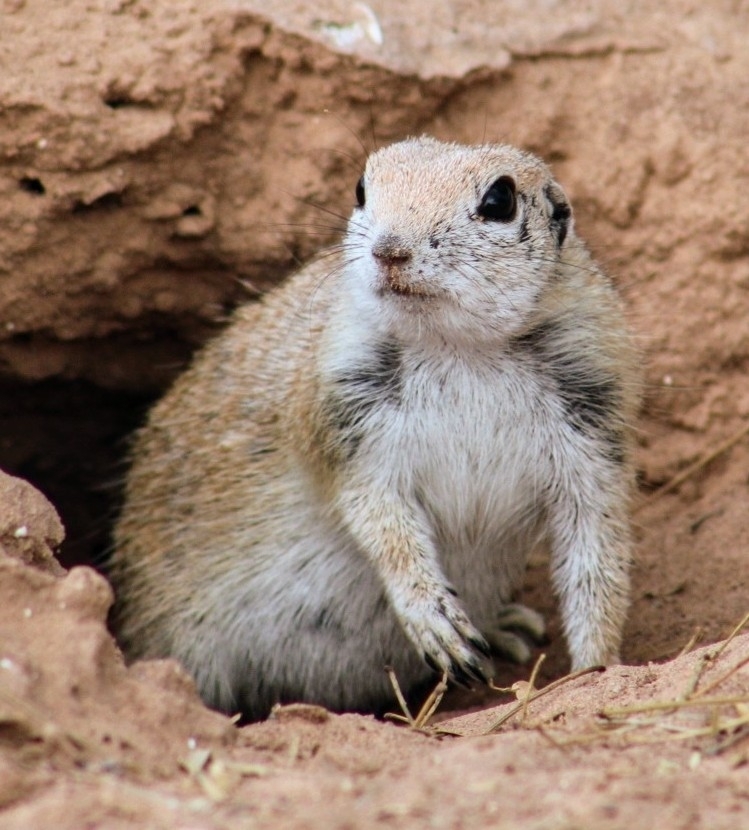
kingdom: Animalia
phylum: Chordata
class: Mammalia
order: Rodentia
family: Sciuridae
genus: Xerospermophilus
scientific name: Xerospermophilus tereticaudus
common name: Round-tailed ground squirrel
